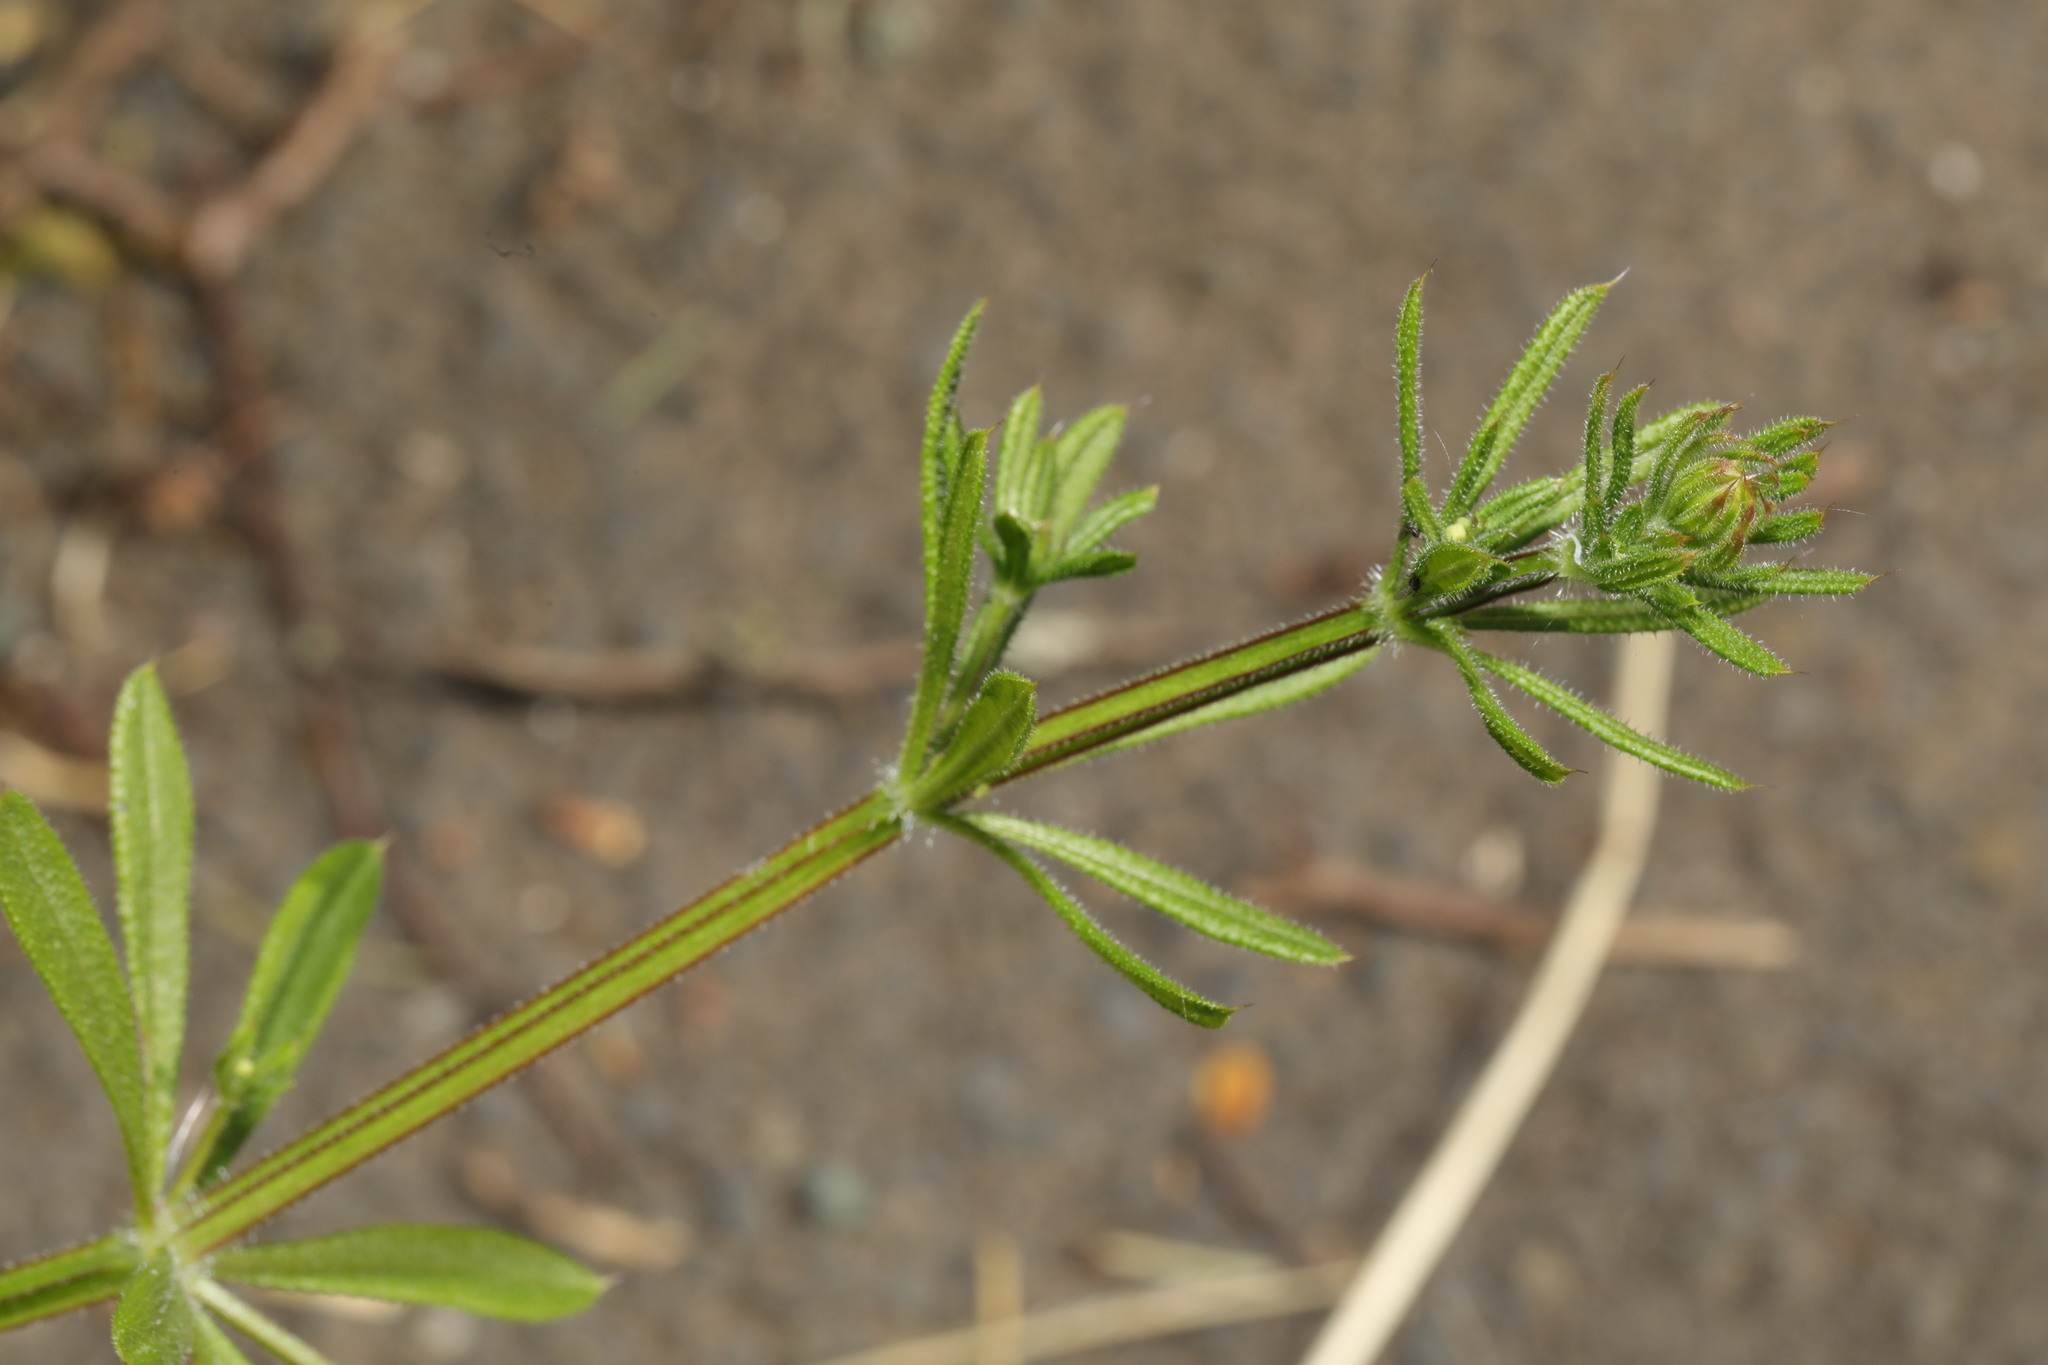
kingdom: Plantae
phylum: Tracheophyta
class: Magnoliopsida
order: Gentianales
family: Rubiaceae
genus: Galium
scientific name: Galium aparine
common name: Cleavers
